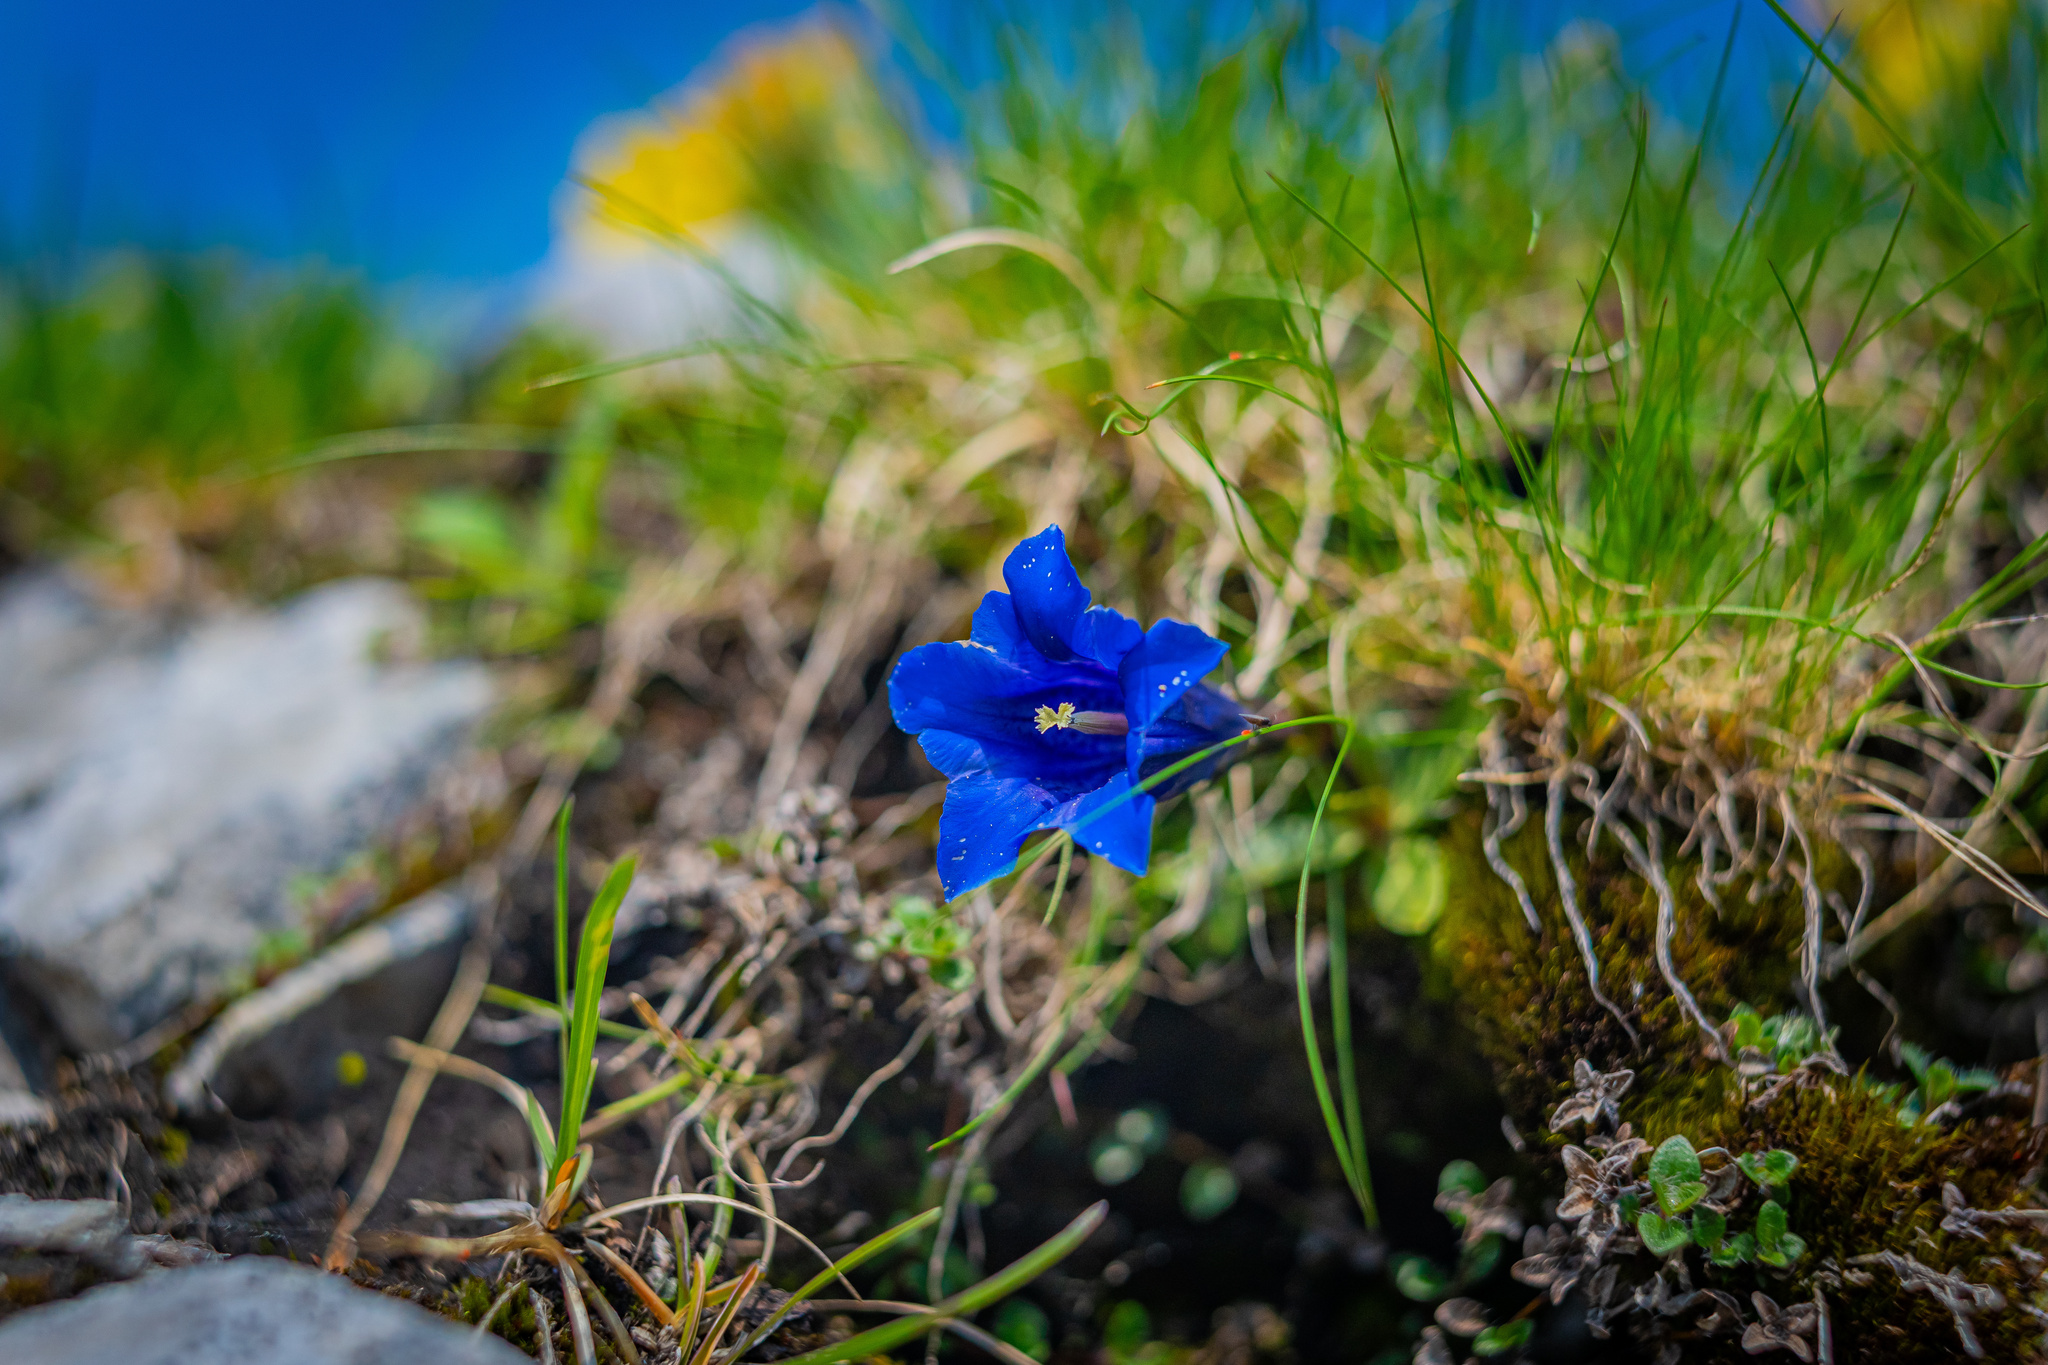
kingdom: Plantae
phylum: Tracheophyta
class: Magnoliopsida
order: Gentianales
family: Gentianaceae
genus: Gentiana
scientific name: Gentiana clusii
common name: Trumpet gentian
